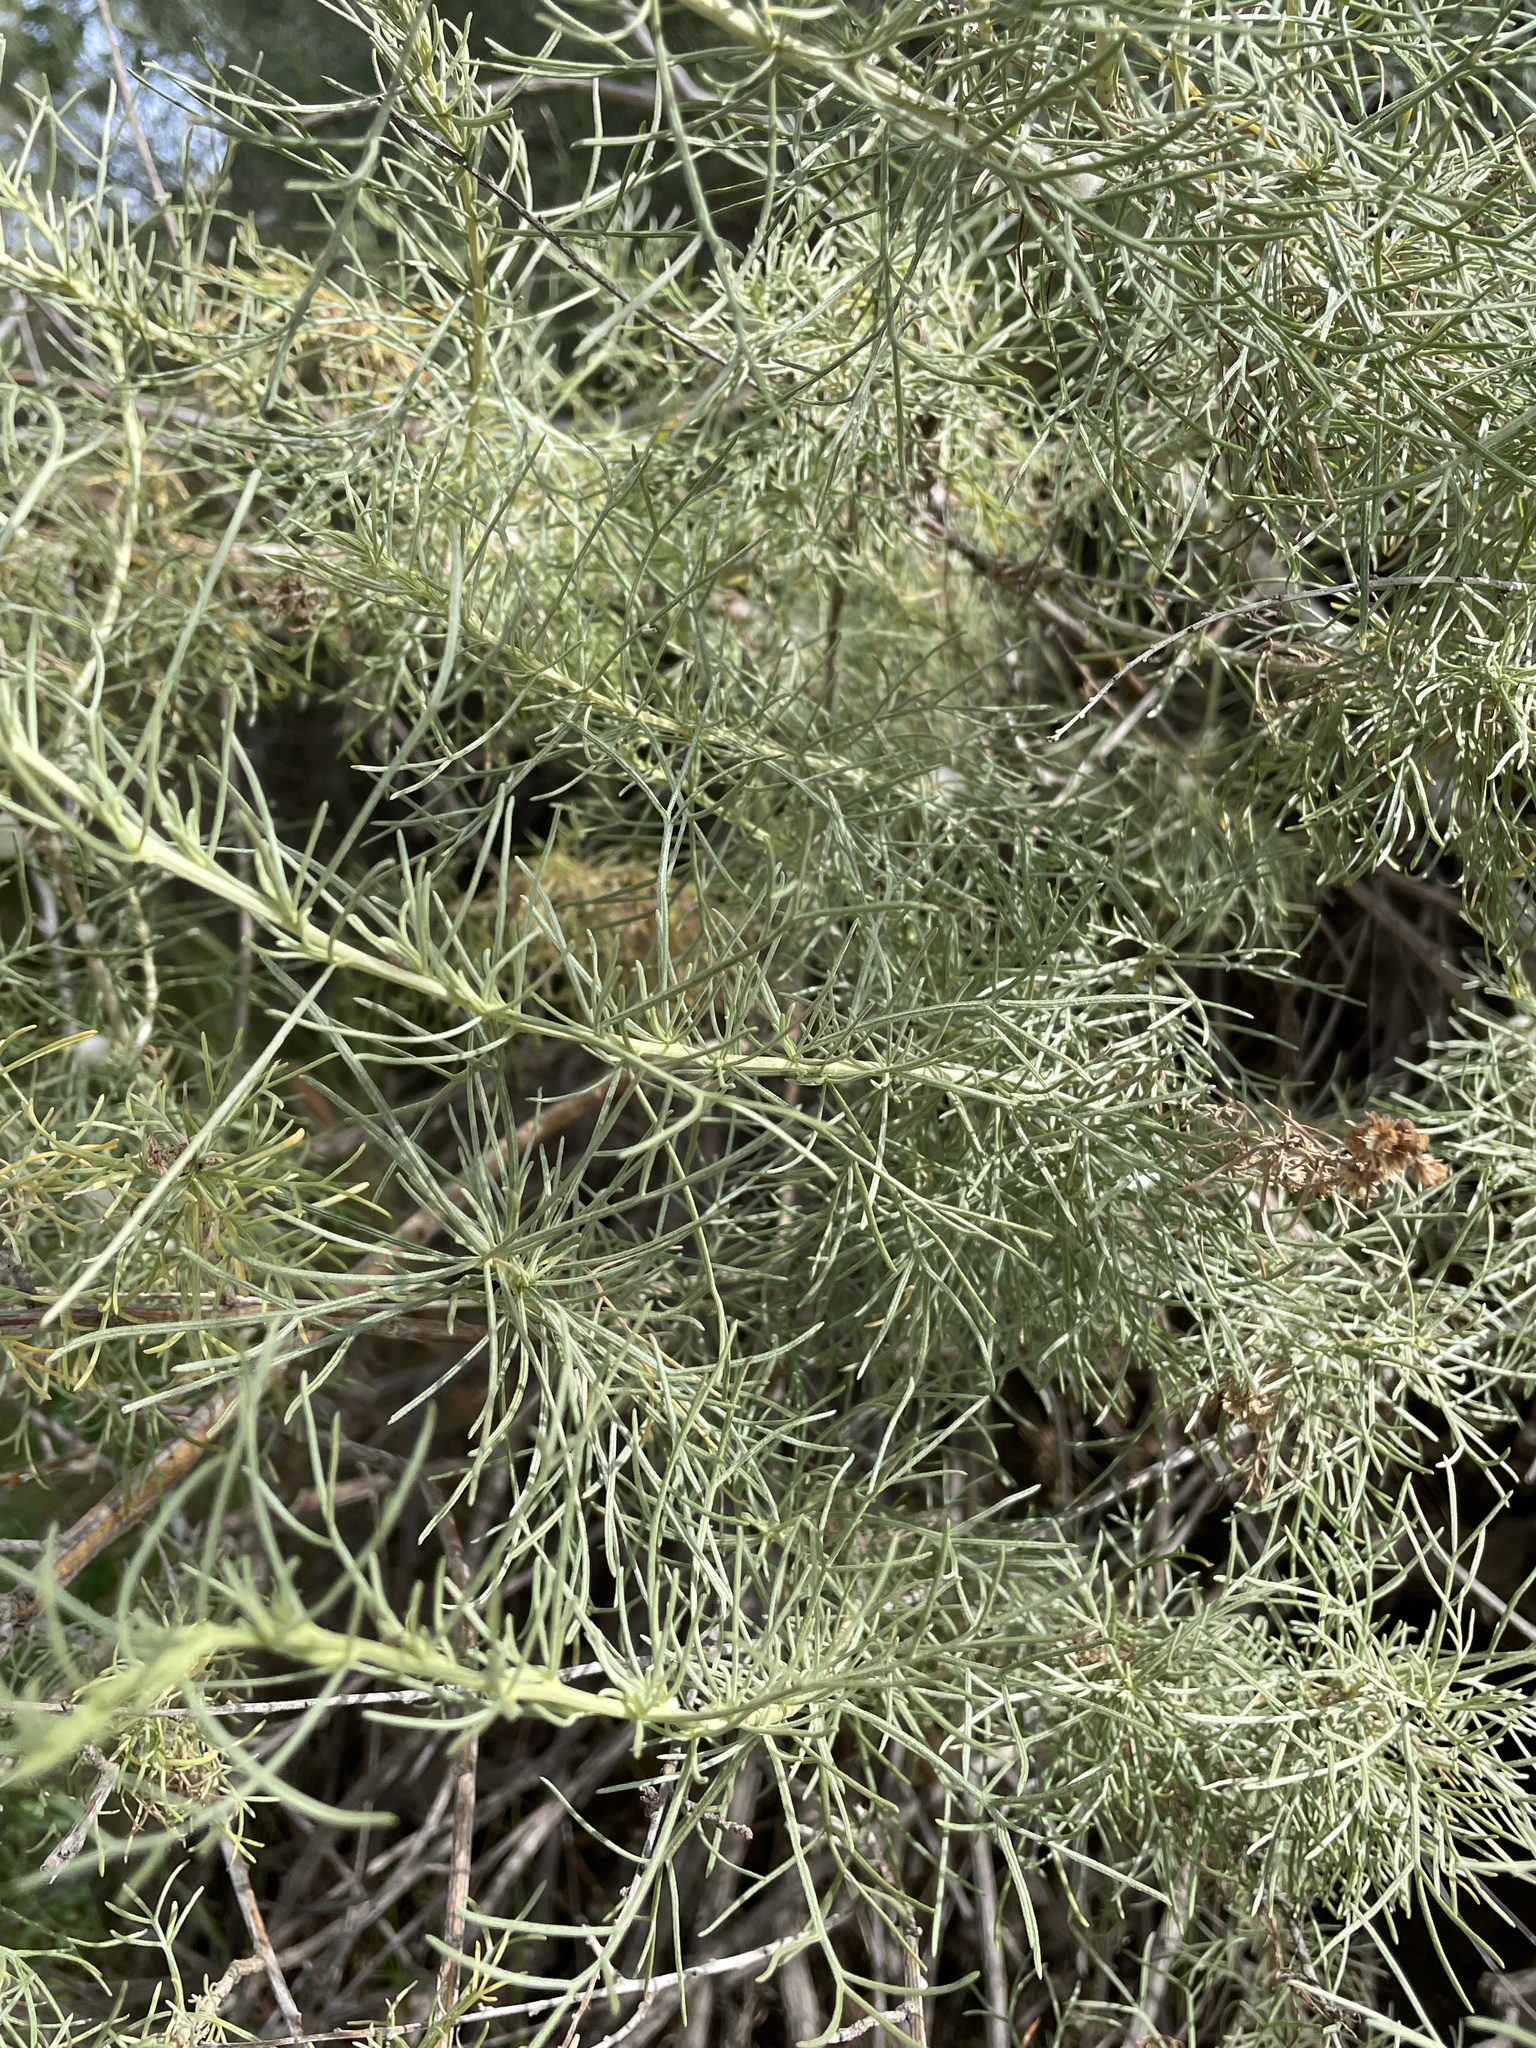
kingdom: Plantae
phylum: Tracheophyta
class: Magnoliopsida
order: Asterales
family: Asteraceae
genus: Artemisia
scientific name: Artemisia californica
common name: California sagebrush
